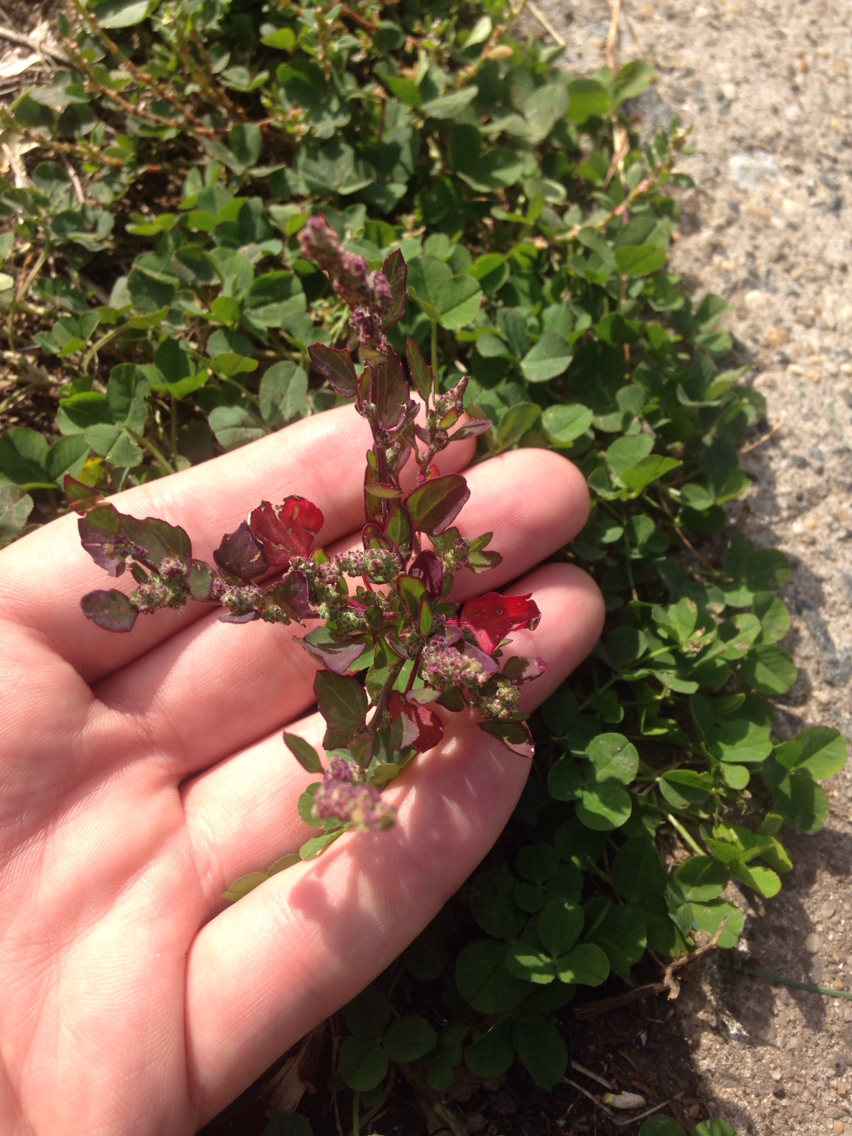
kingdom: Plantae
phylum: Tracheophyta
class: Magnoliopsida
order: Caryophyllales
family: Amaranthaceae
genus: Chenopodium
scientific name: Chenopodium album
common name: Fat-hen
